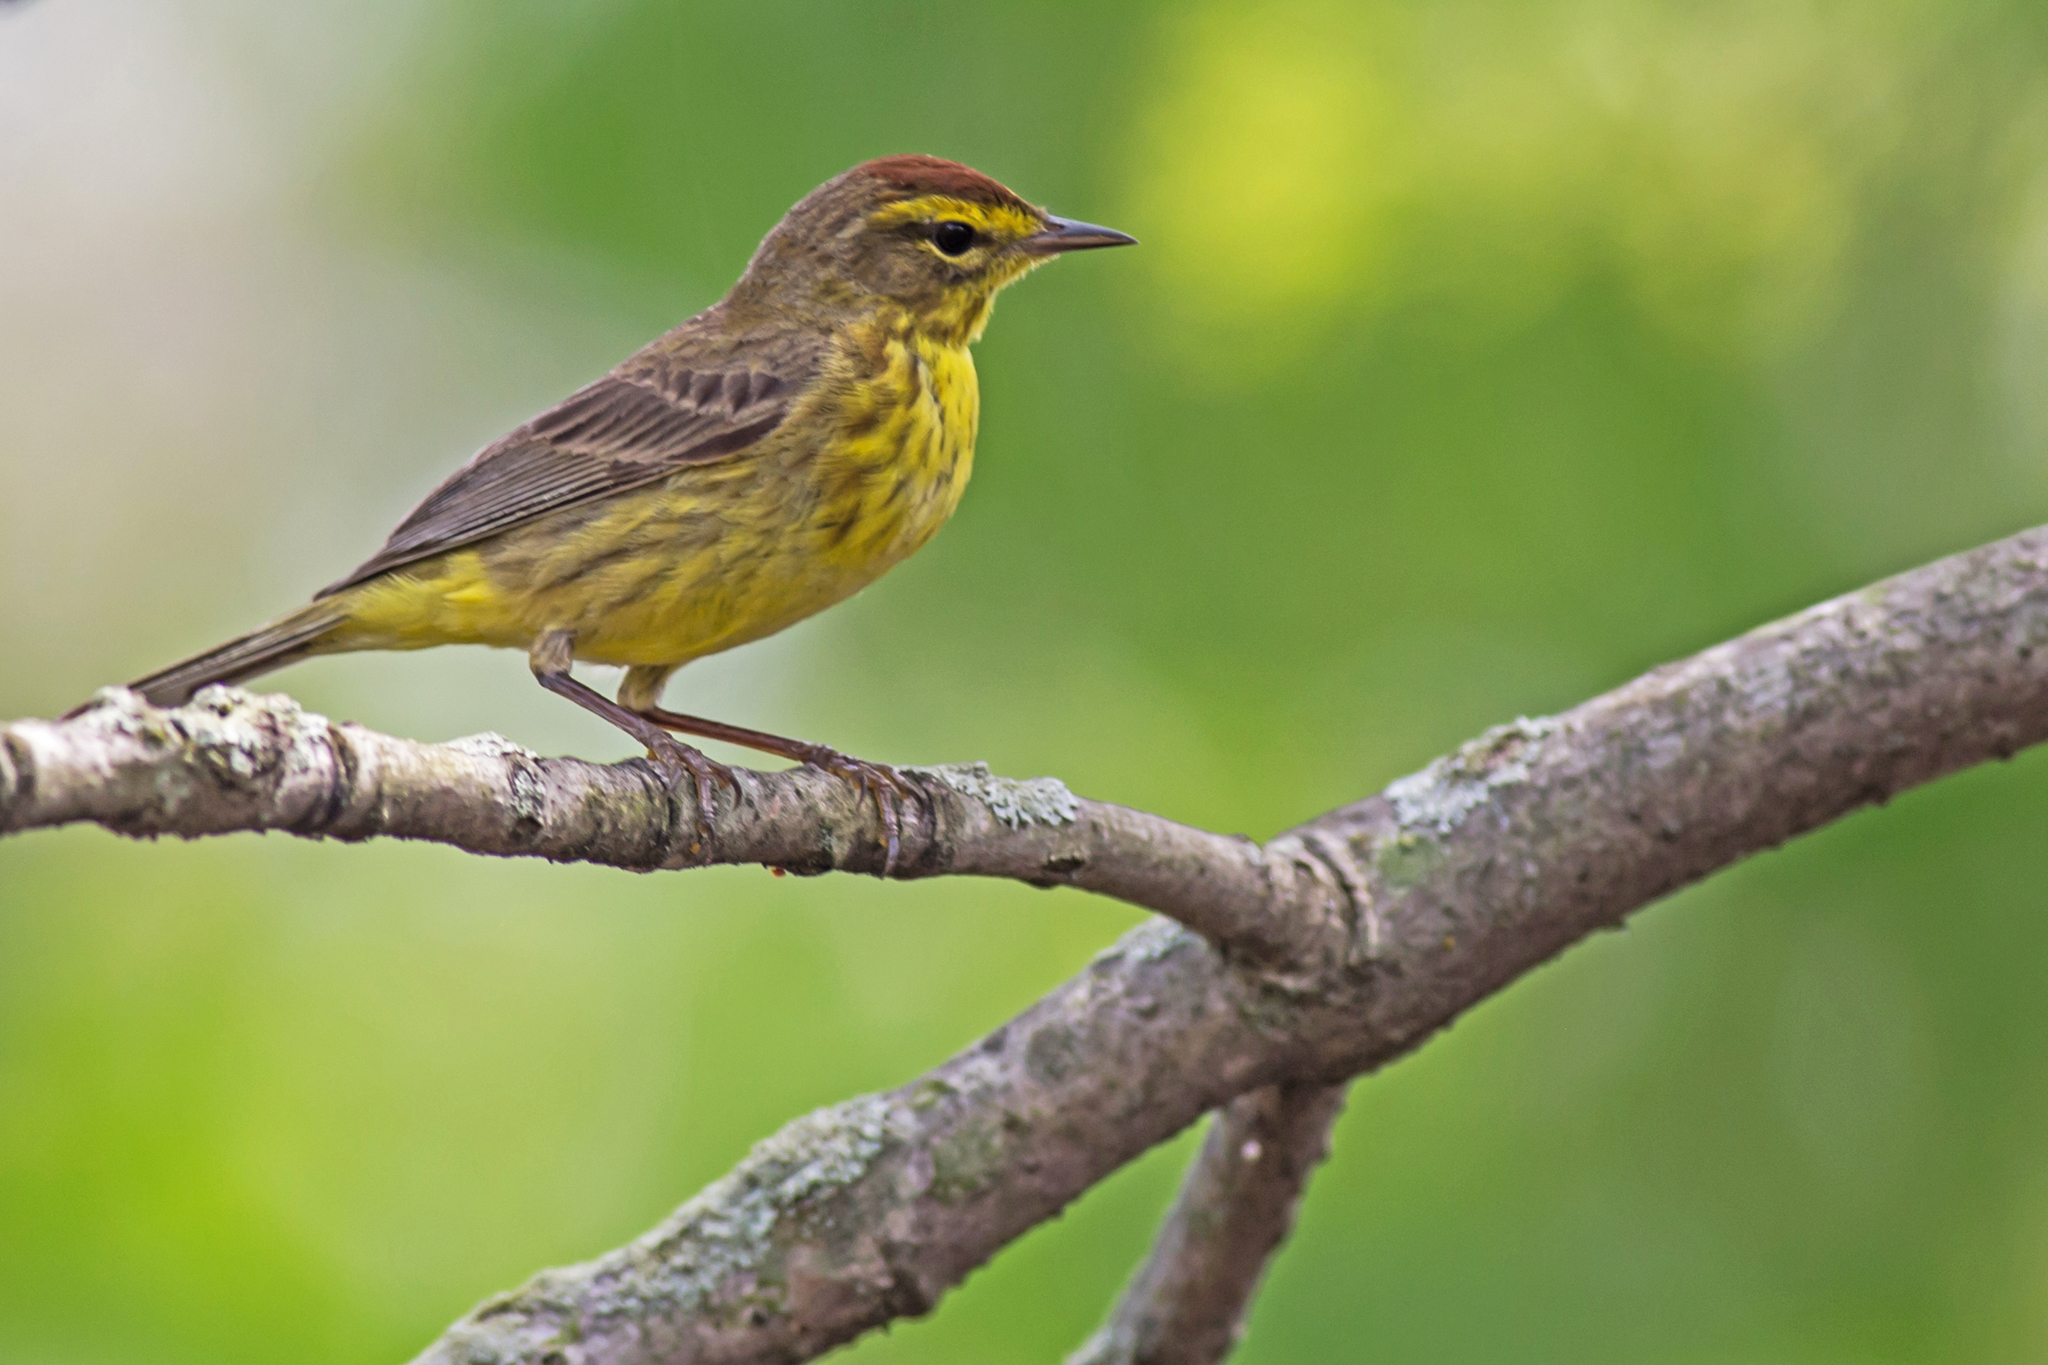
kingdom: Animalia
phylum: Chordata
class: Aves
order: Passeriformes
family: Parulidae
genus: Setophaga
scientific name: Setophaga palmarum
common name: Palm warbler
